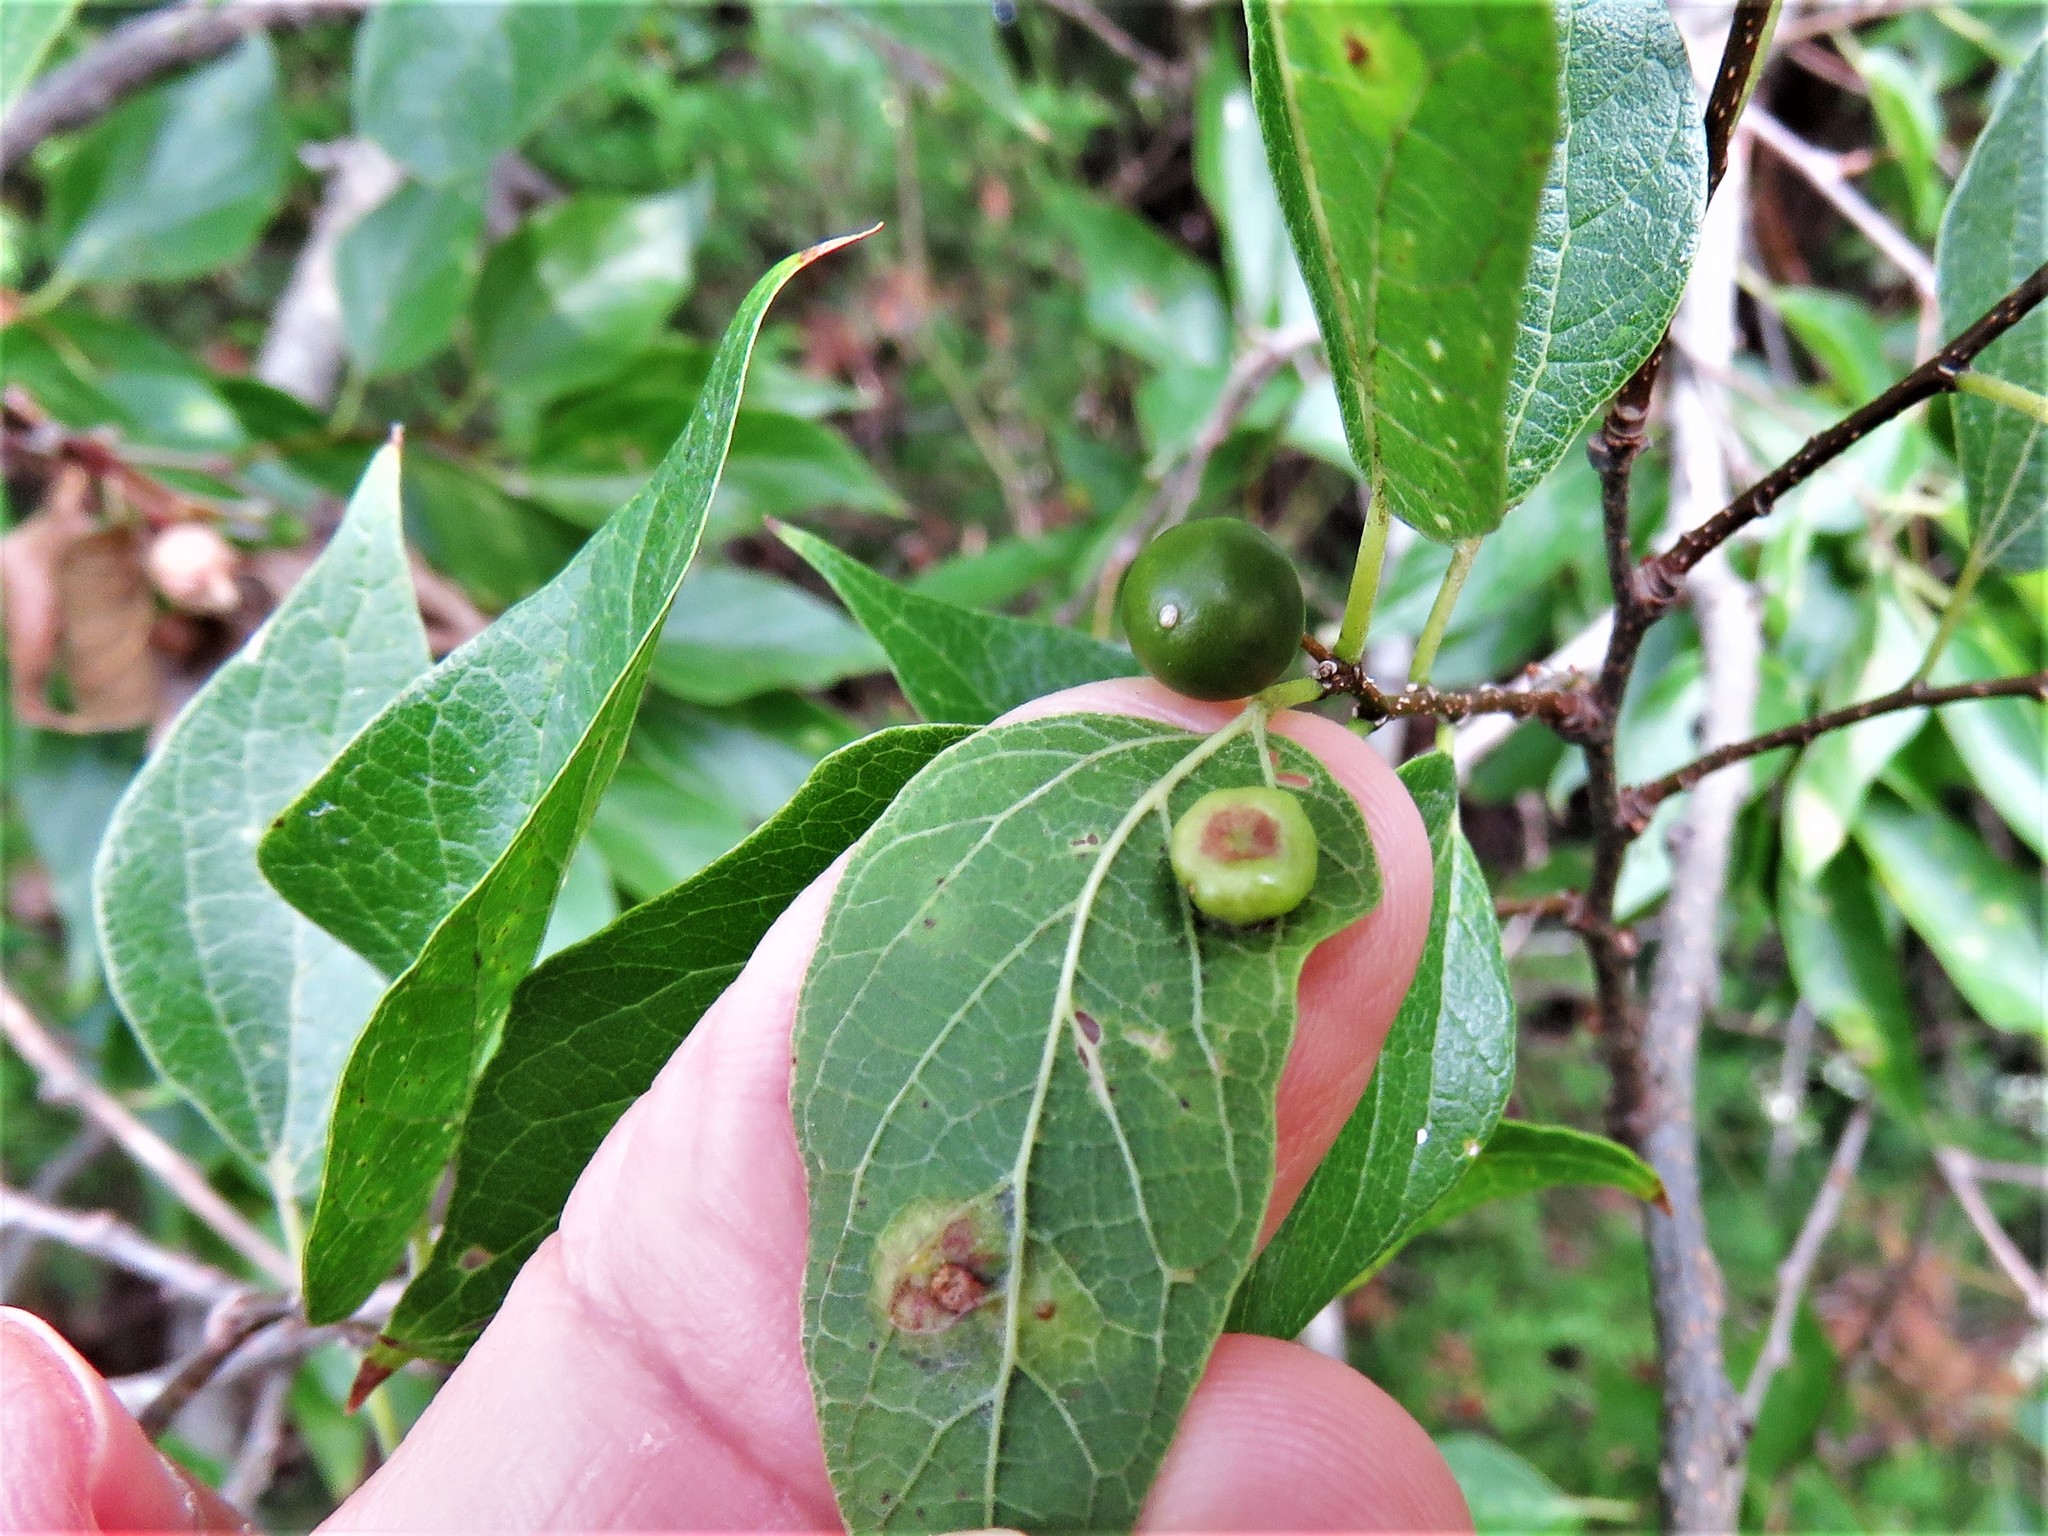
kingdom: Animalia
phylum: Arthropoda
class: Insecta
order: Hemiptera
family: Aphalaridae
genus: Pachypsylla
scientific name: Pachypsylla celtidismamma
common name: Hackberry nipplegall psyllid
